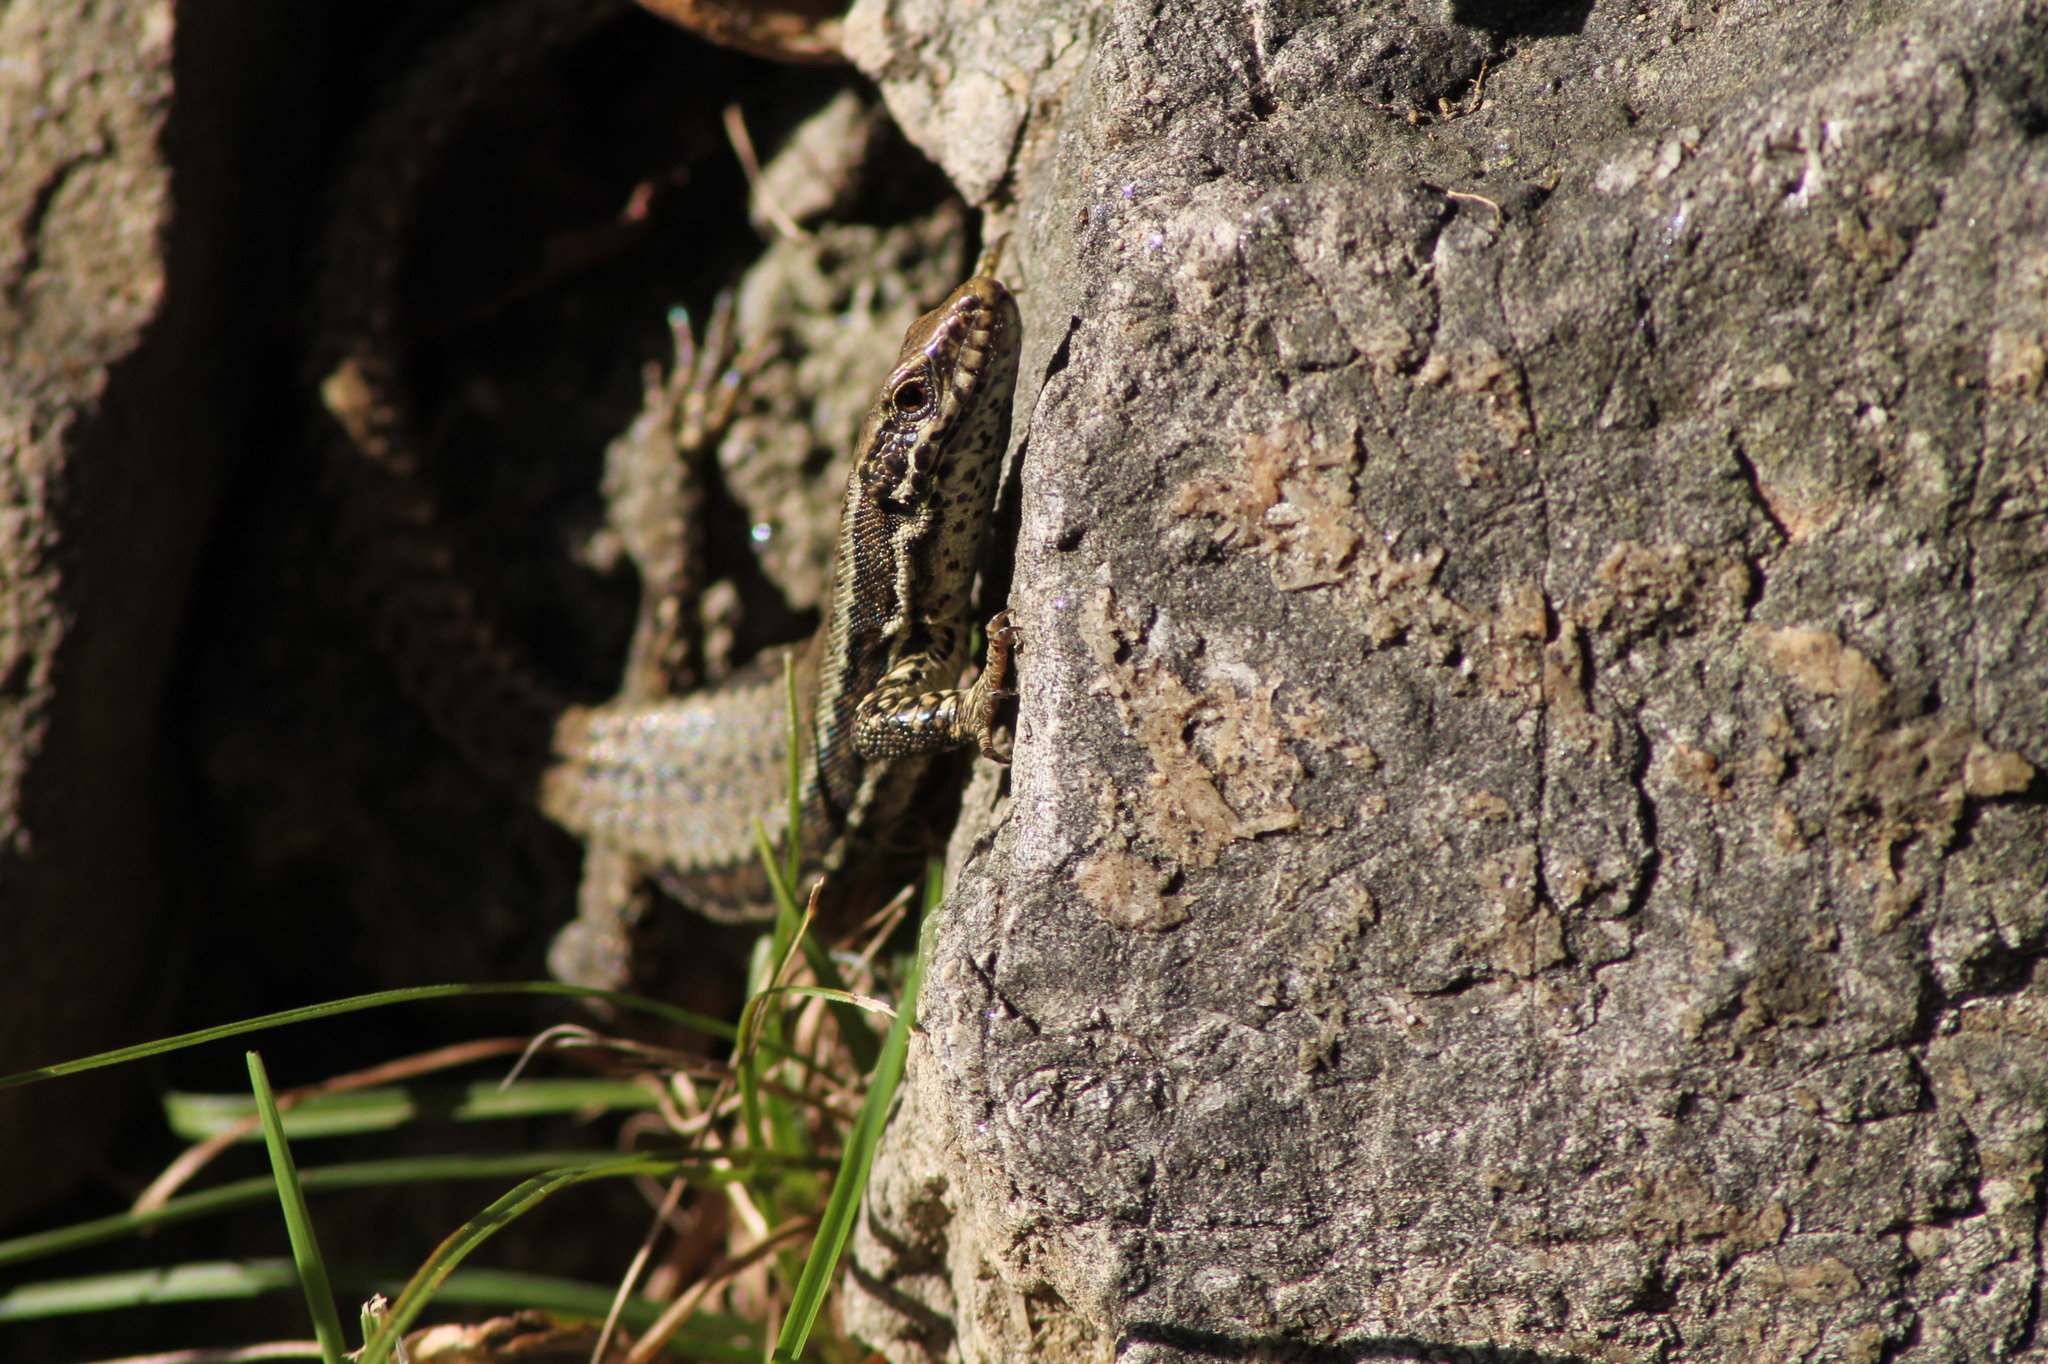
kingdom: Animalia
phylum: Chordata
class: Squamata
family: Lacertidae
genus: Podarcis
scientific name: Podarcis muralis
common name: Common wall lizard
